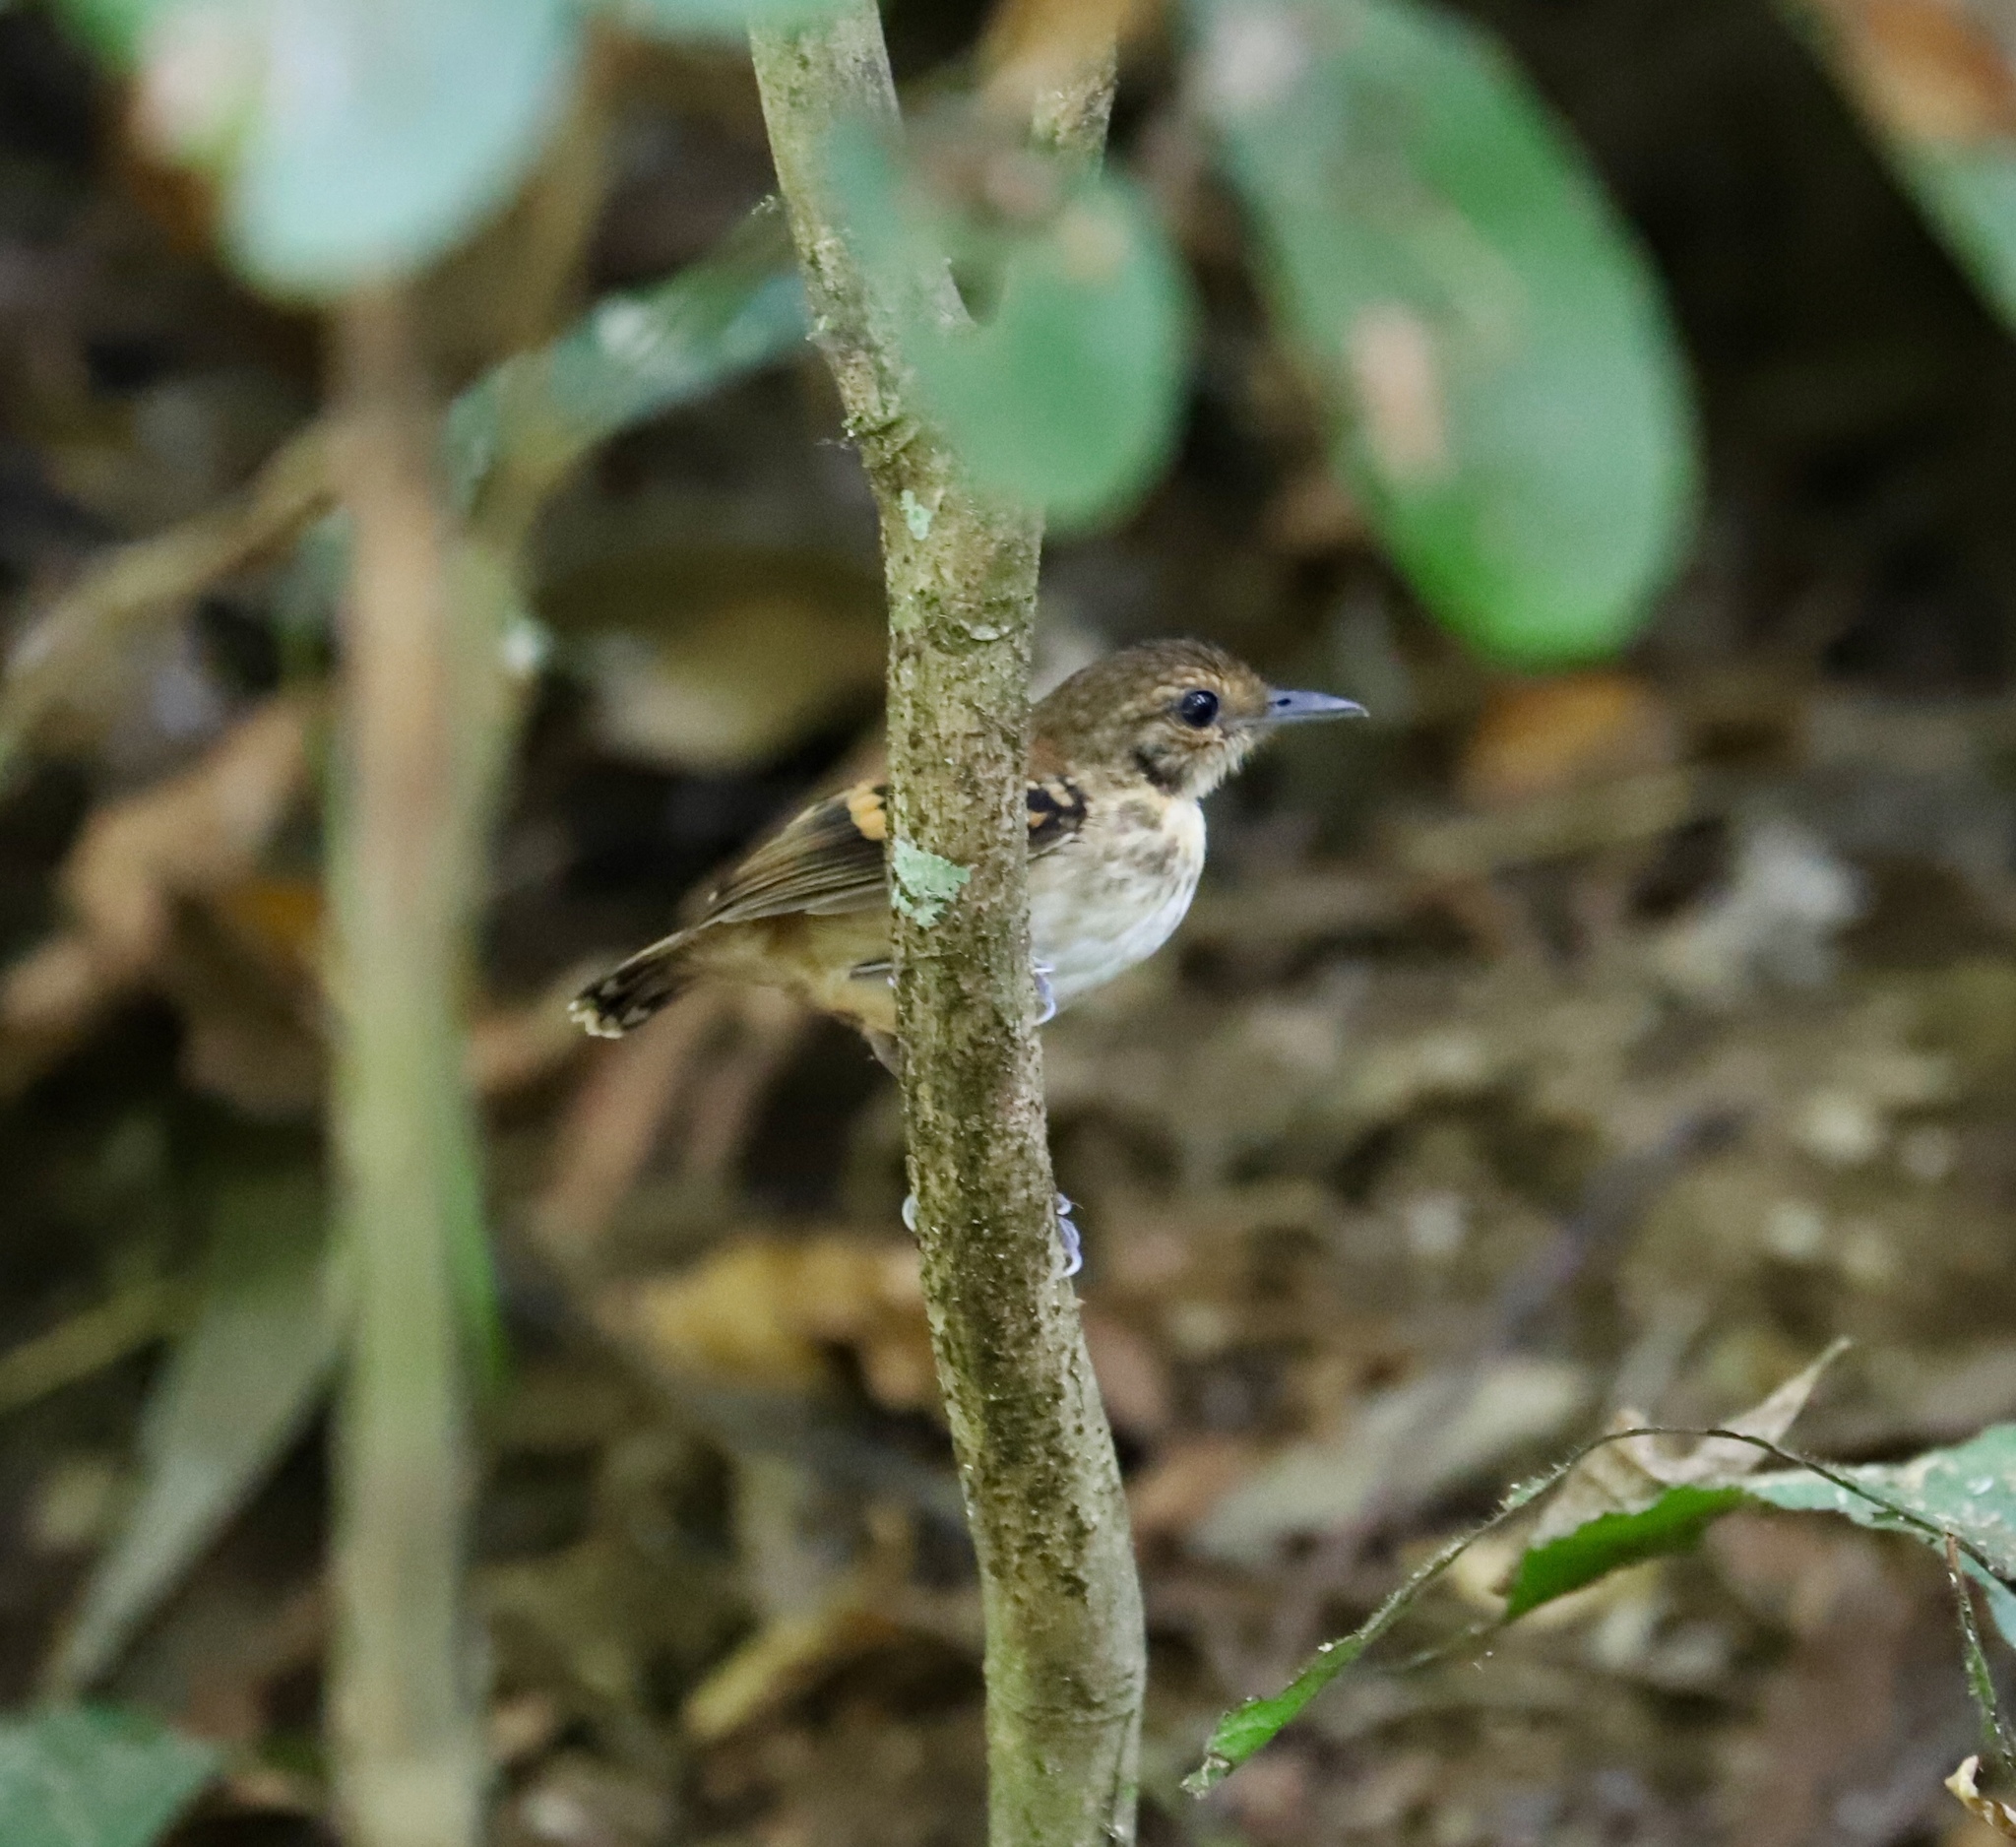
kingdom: Animalia
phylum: Chordata
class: Aves
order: Passeriformes
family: Thamnophilidae
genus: Hylophylax
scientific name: Hylophylax naevioides
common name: Spotted antbird
